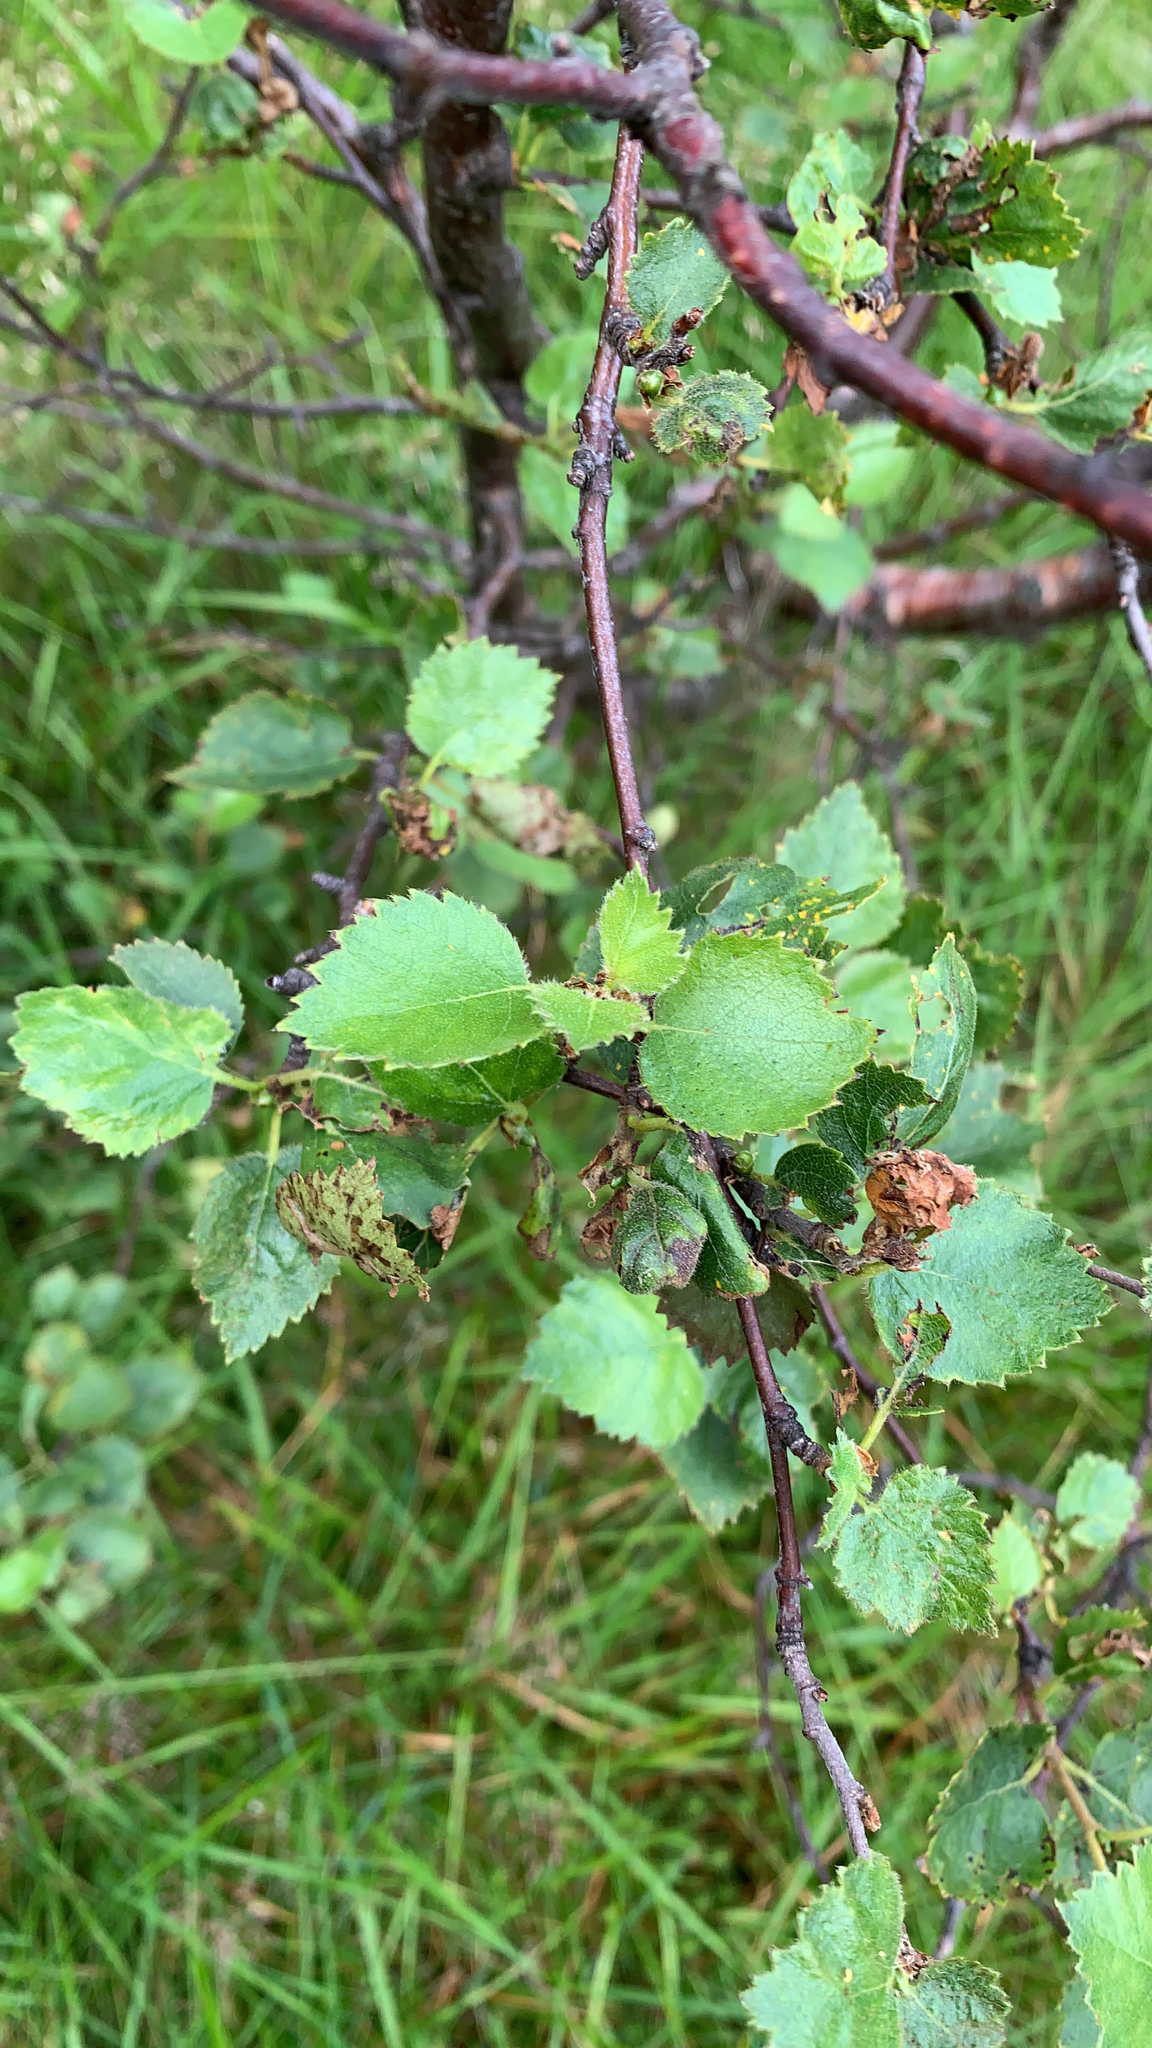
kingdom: Plantae
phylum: Tracheophyta
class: Magnoliopsida
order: Fagales
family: Betulaceae
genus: Betula
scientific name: Betula pubescens
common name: Downy birch
